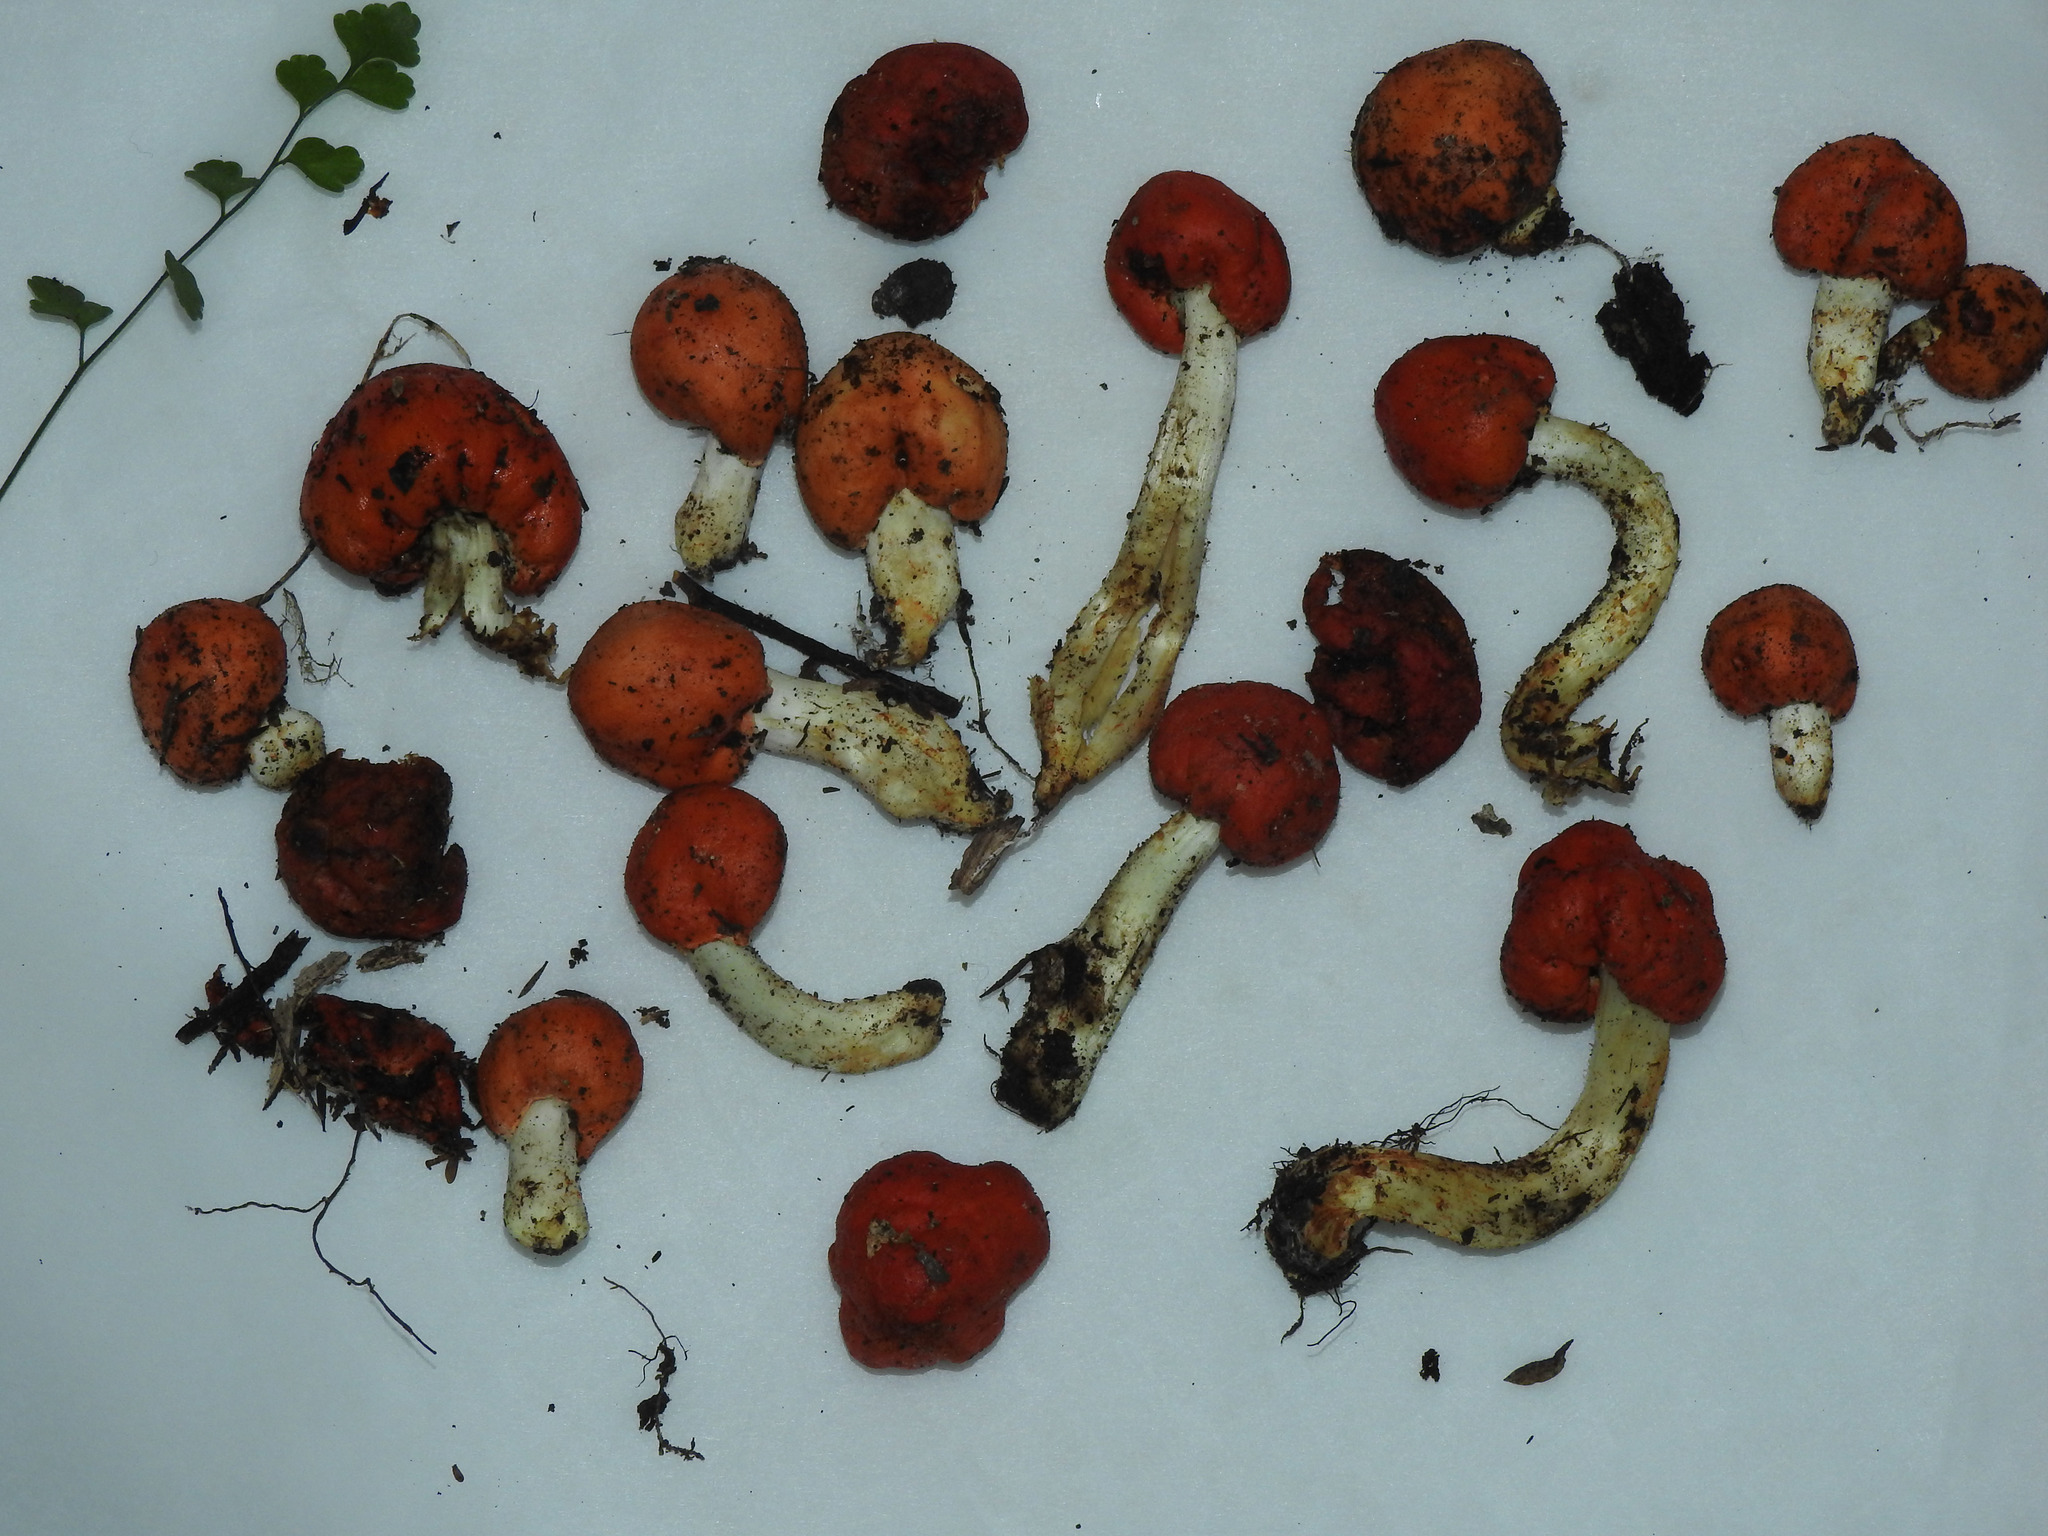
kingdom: Fungi
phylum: Basidiomycota
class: Agaricomycetes
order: Agaricales
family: Strophariaceae
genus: Leratiomyces
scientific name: Leratiomyces erythrocephalus
